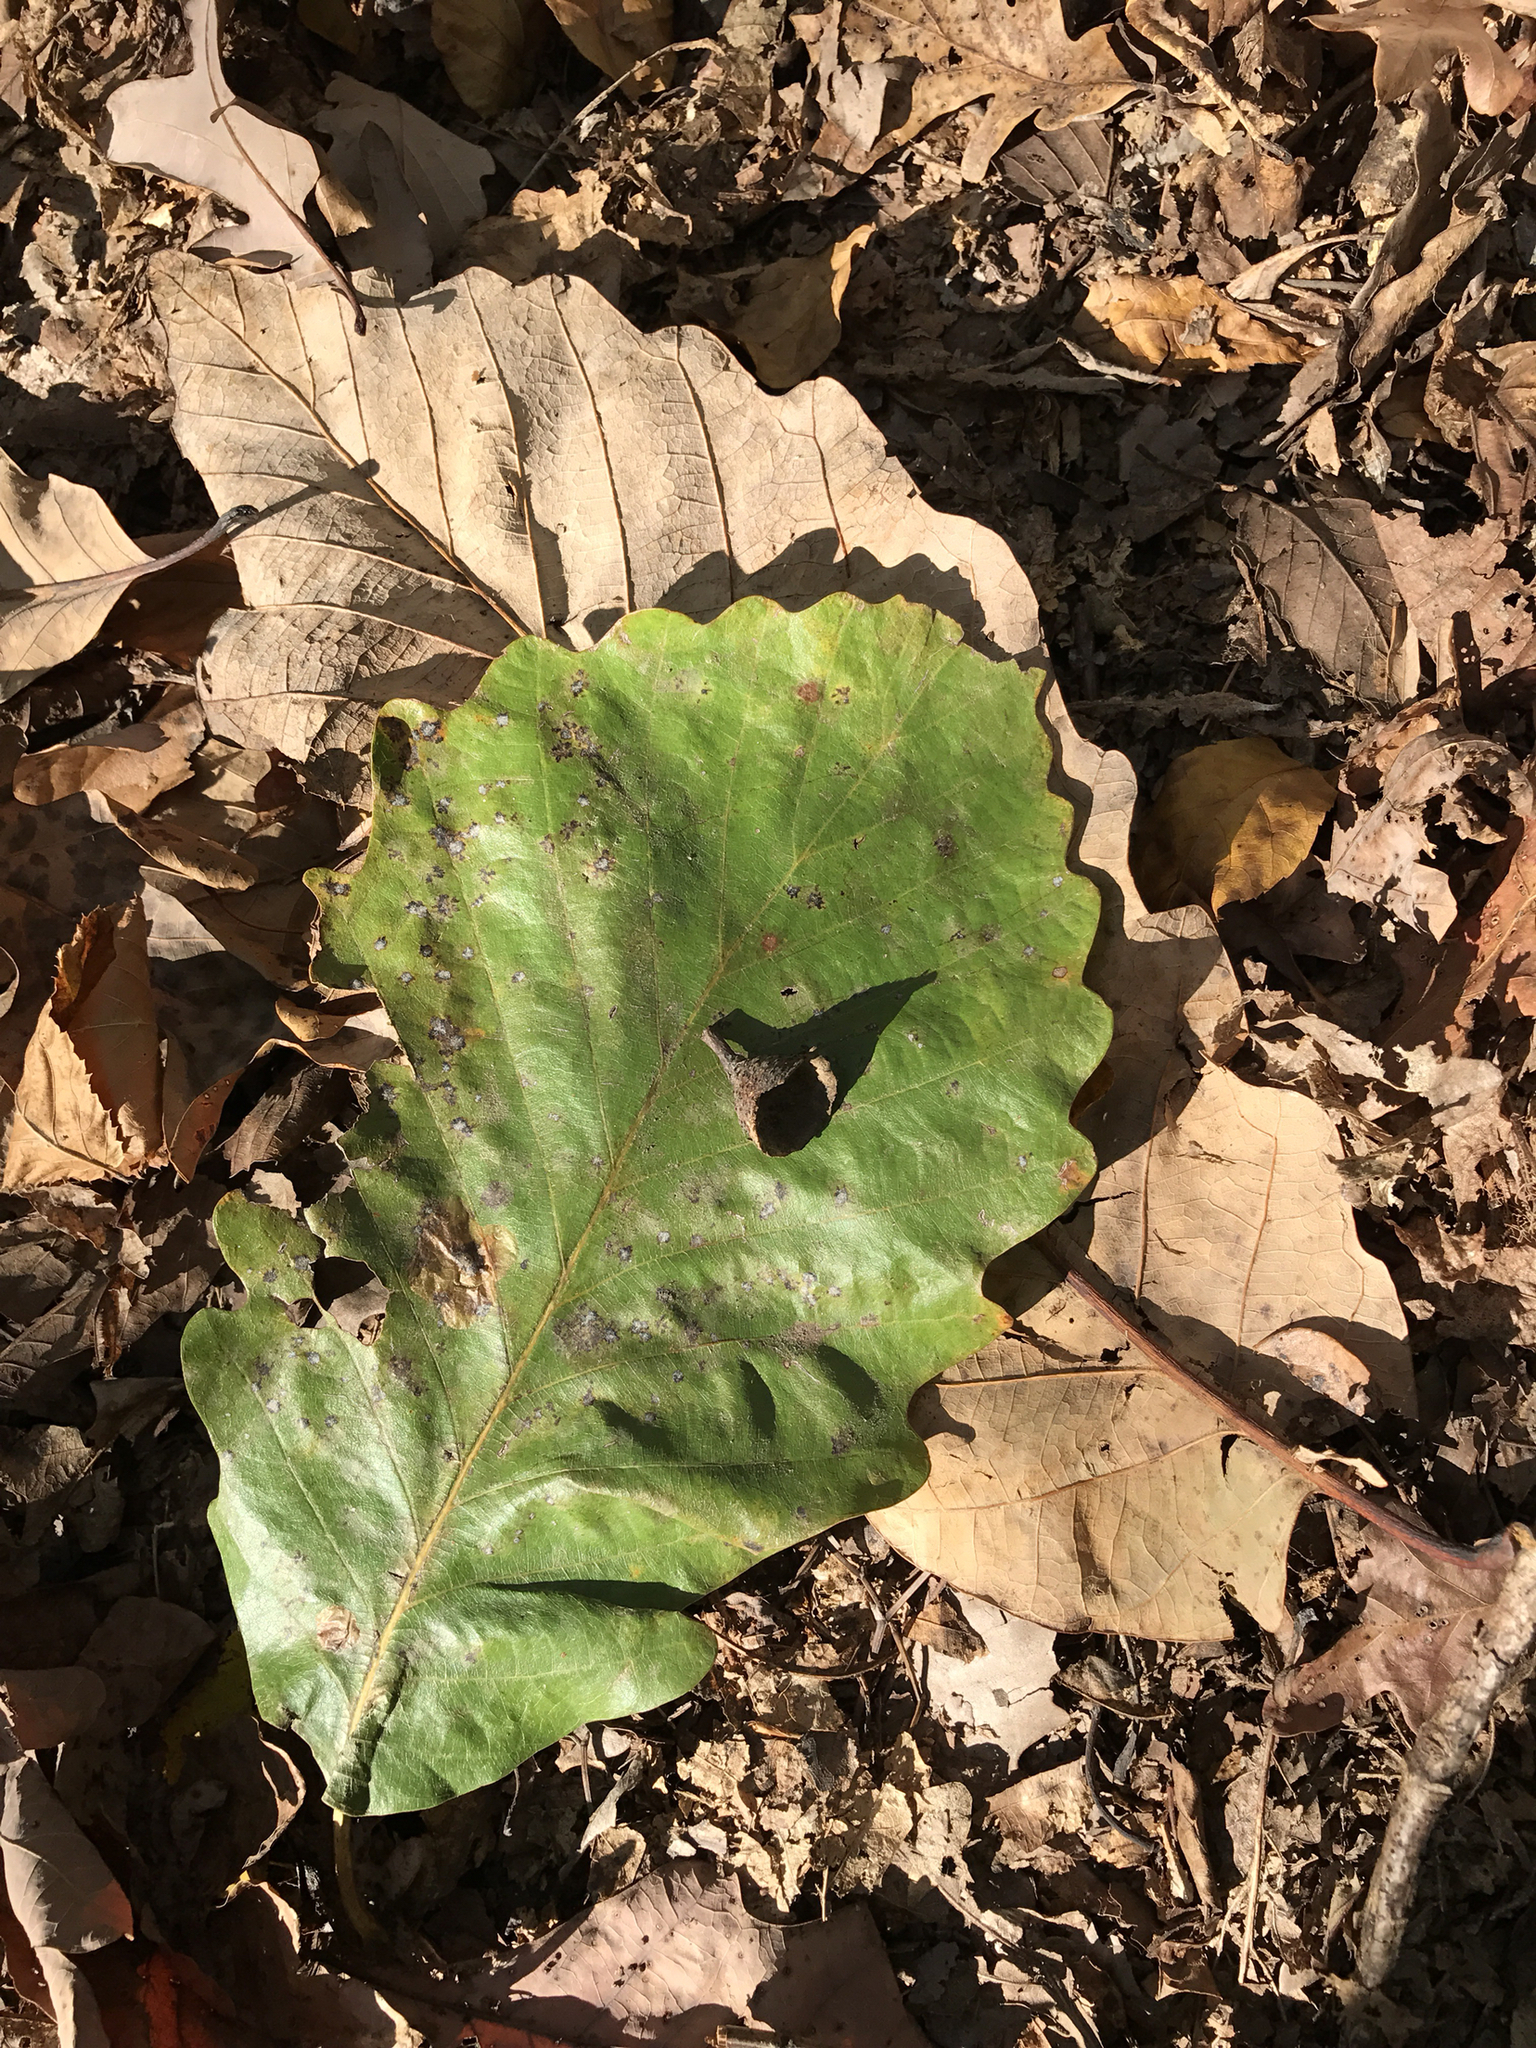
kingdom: Plantae
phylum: Tracheophyta
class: Magnoliopsida
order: Fagales
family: Fagaceae
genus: Quercus
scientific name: Quercus montana
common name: Chestnut oak
